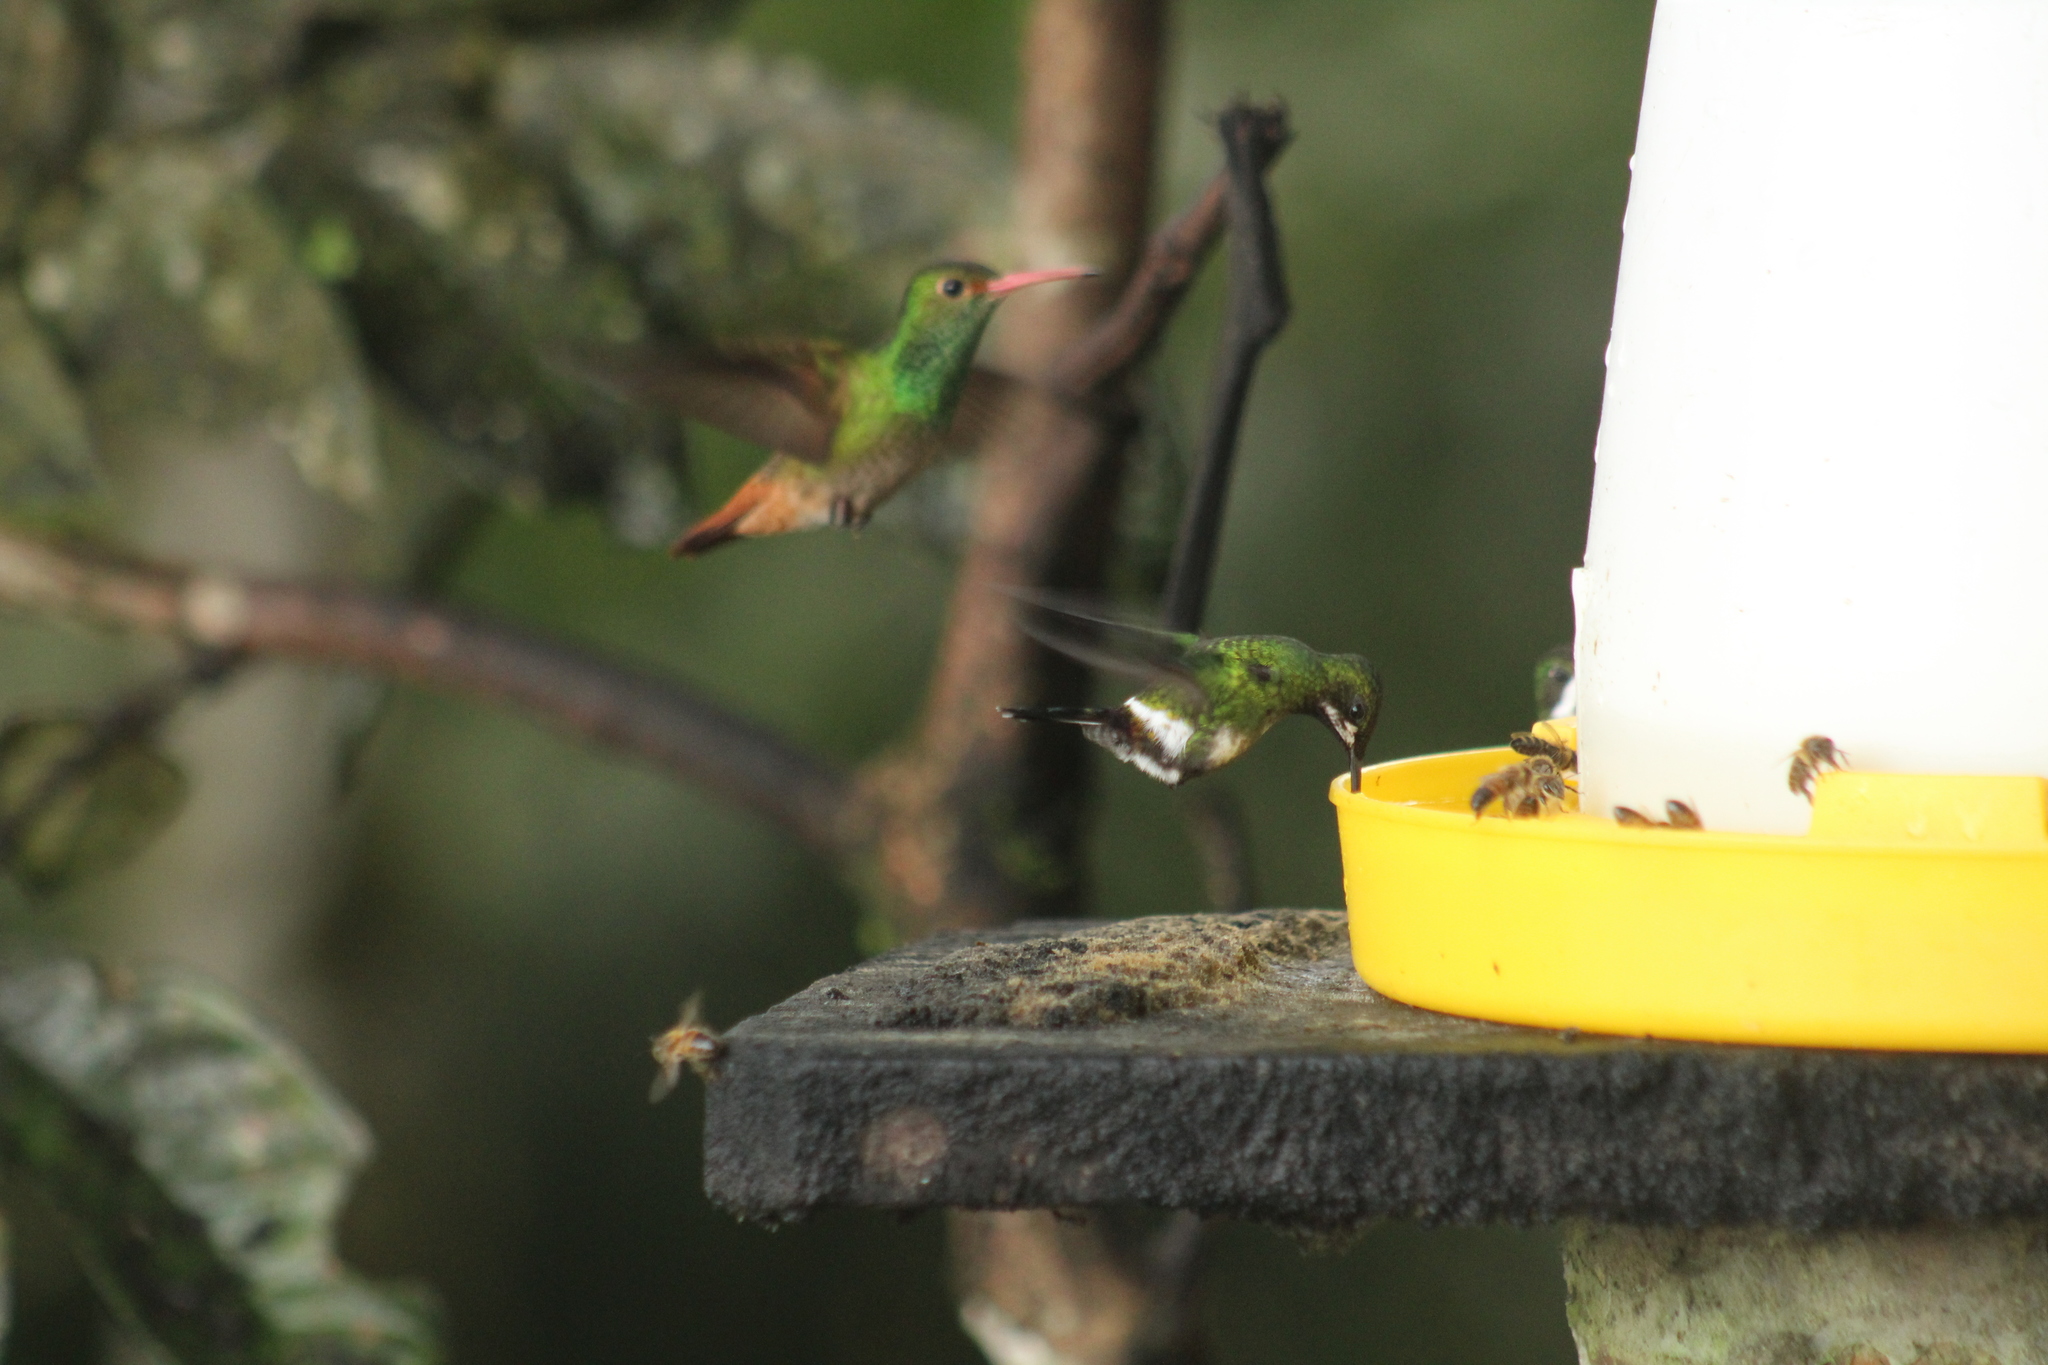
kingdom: Animalia
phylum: Chordata
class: Aves
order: Apodiformes
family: Trochilidae
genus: Discosura
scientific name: Discosura conversii
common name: Green thorntail
